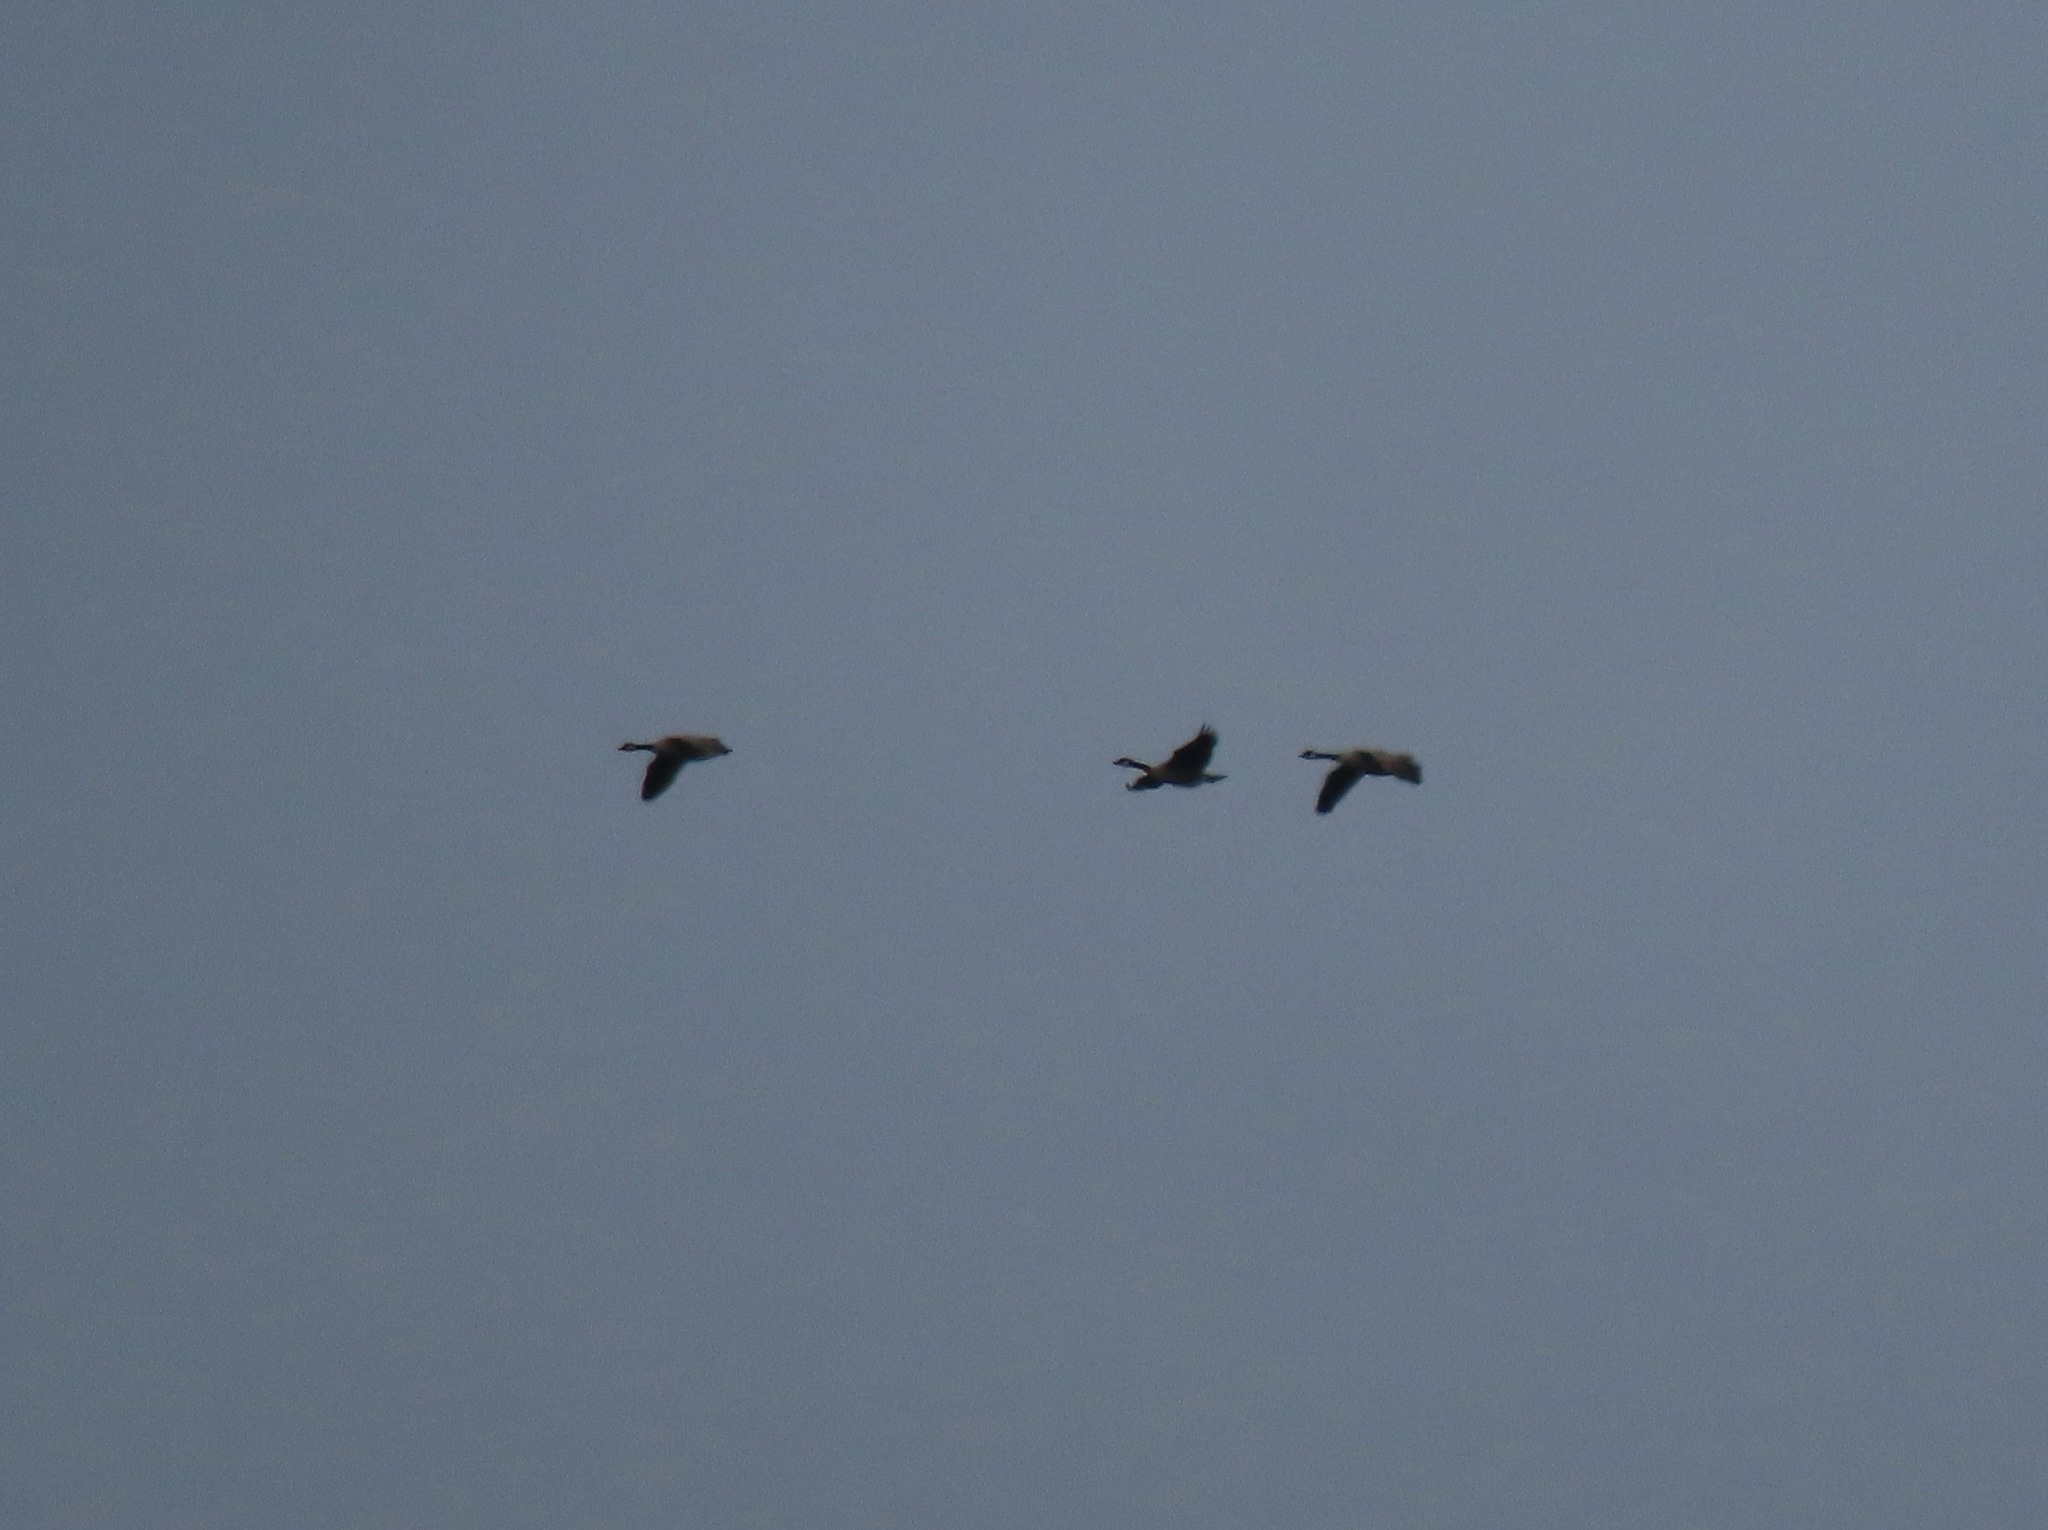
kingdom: Animalia
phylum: Chordata
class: Aves
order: Anseriformes
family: Anatidae
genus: Branta
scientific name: Branta canadensis
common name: Canada goose
